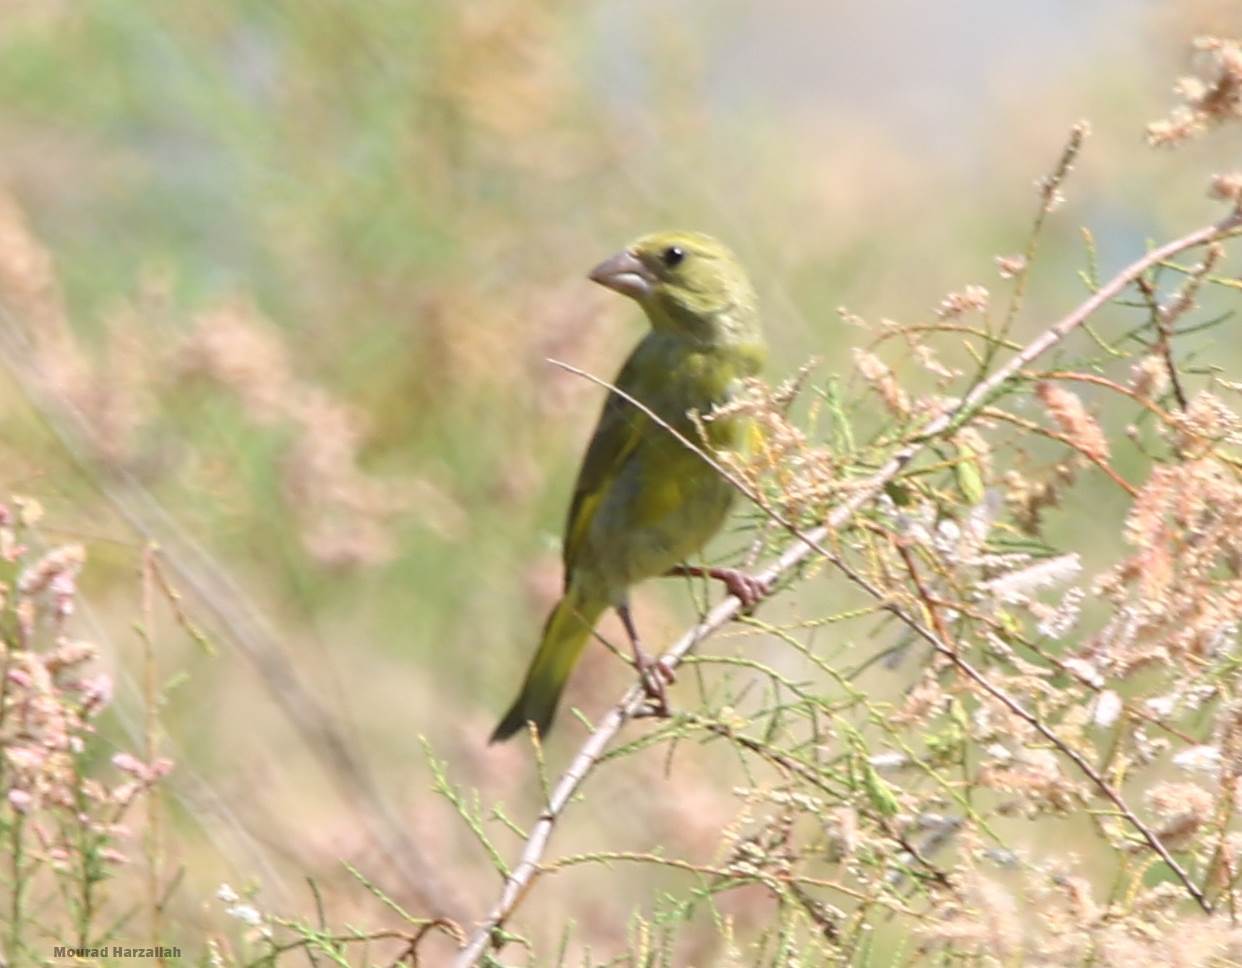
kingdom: Plantae
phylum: Tracheophyta
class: Liliopsida
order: Poales
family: Poaceae
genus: Chloris
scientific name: Chloris chloris
